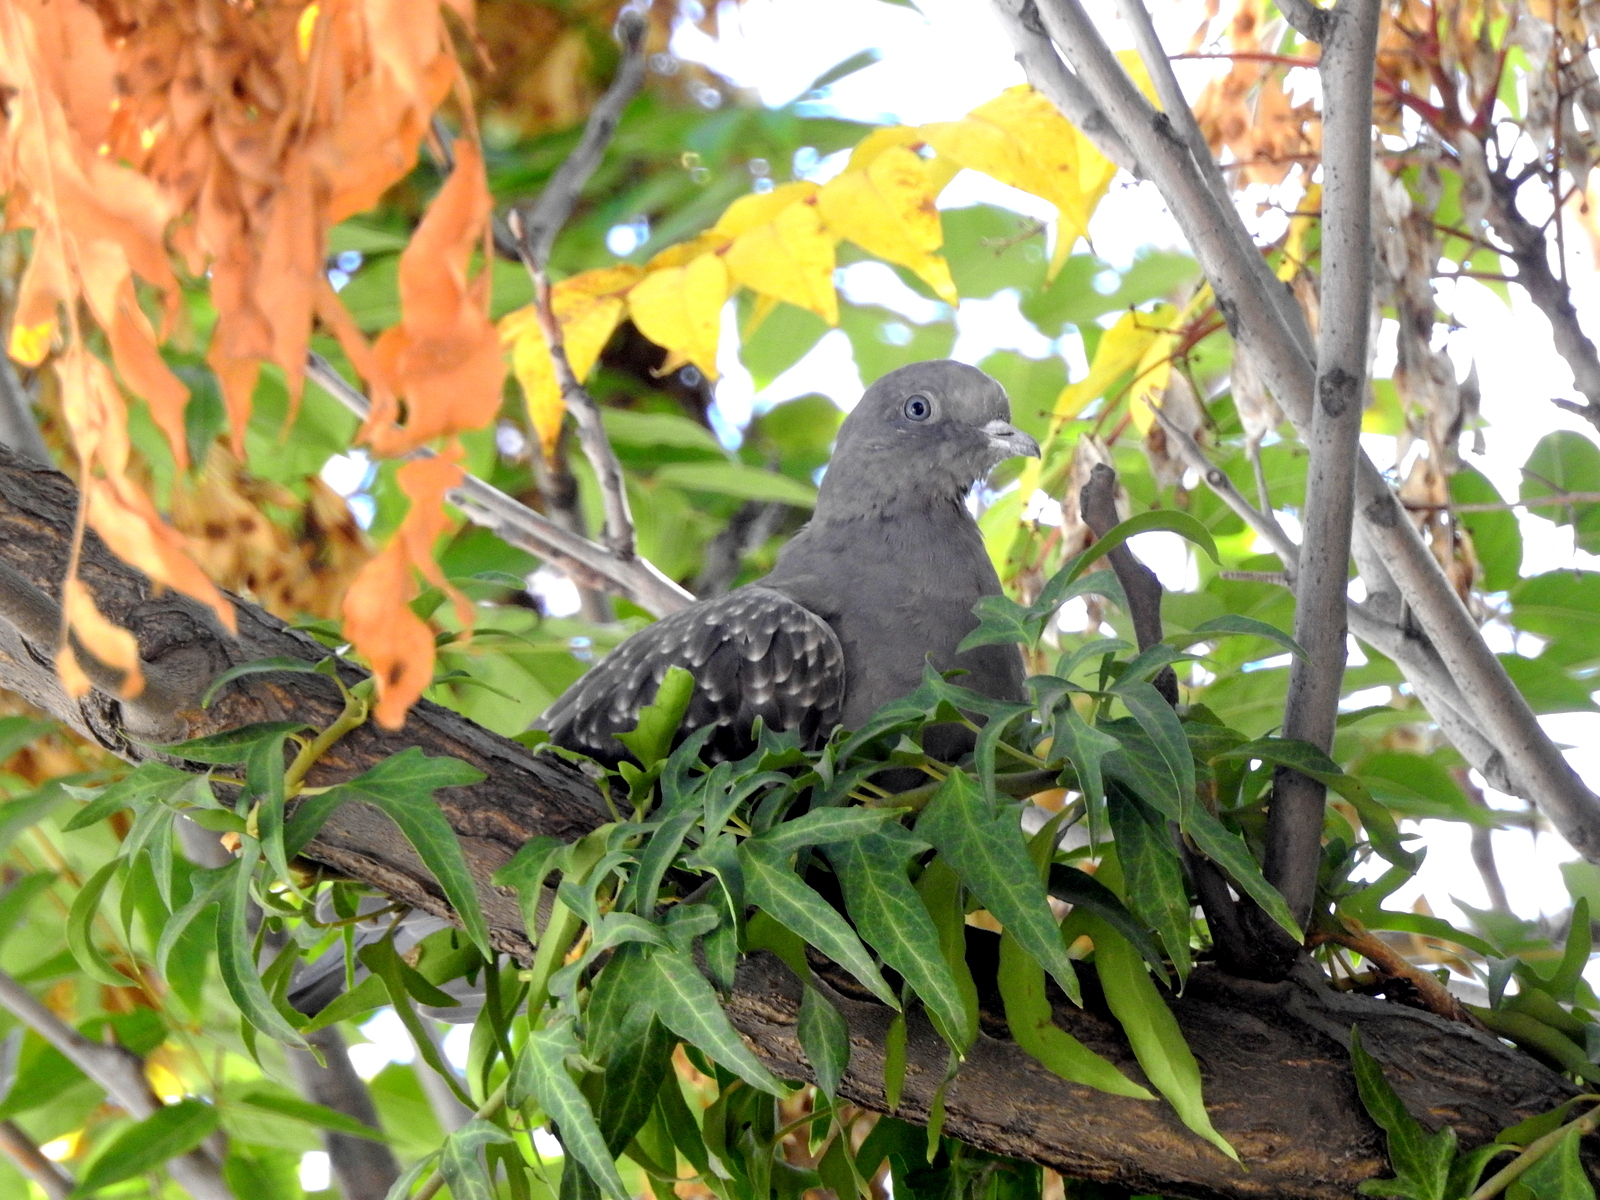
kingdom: Animalia
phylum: Chordata
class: Aves
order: Columbiformes
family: Columbidae
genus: Patagioenas
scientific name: Patagioenas maculosa
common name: Spot-winged pigeon
